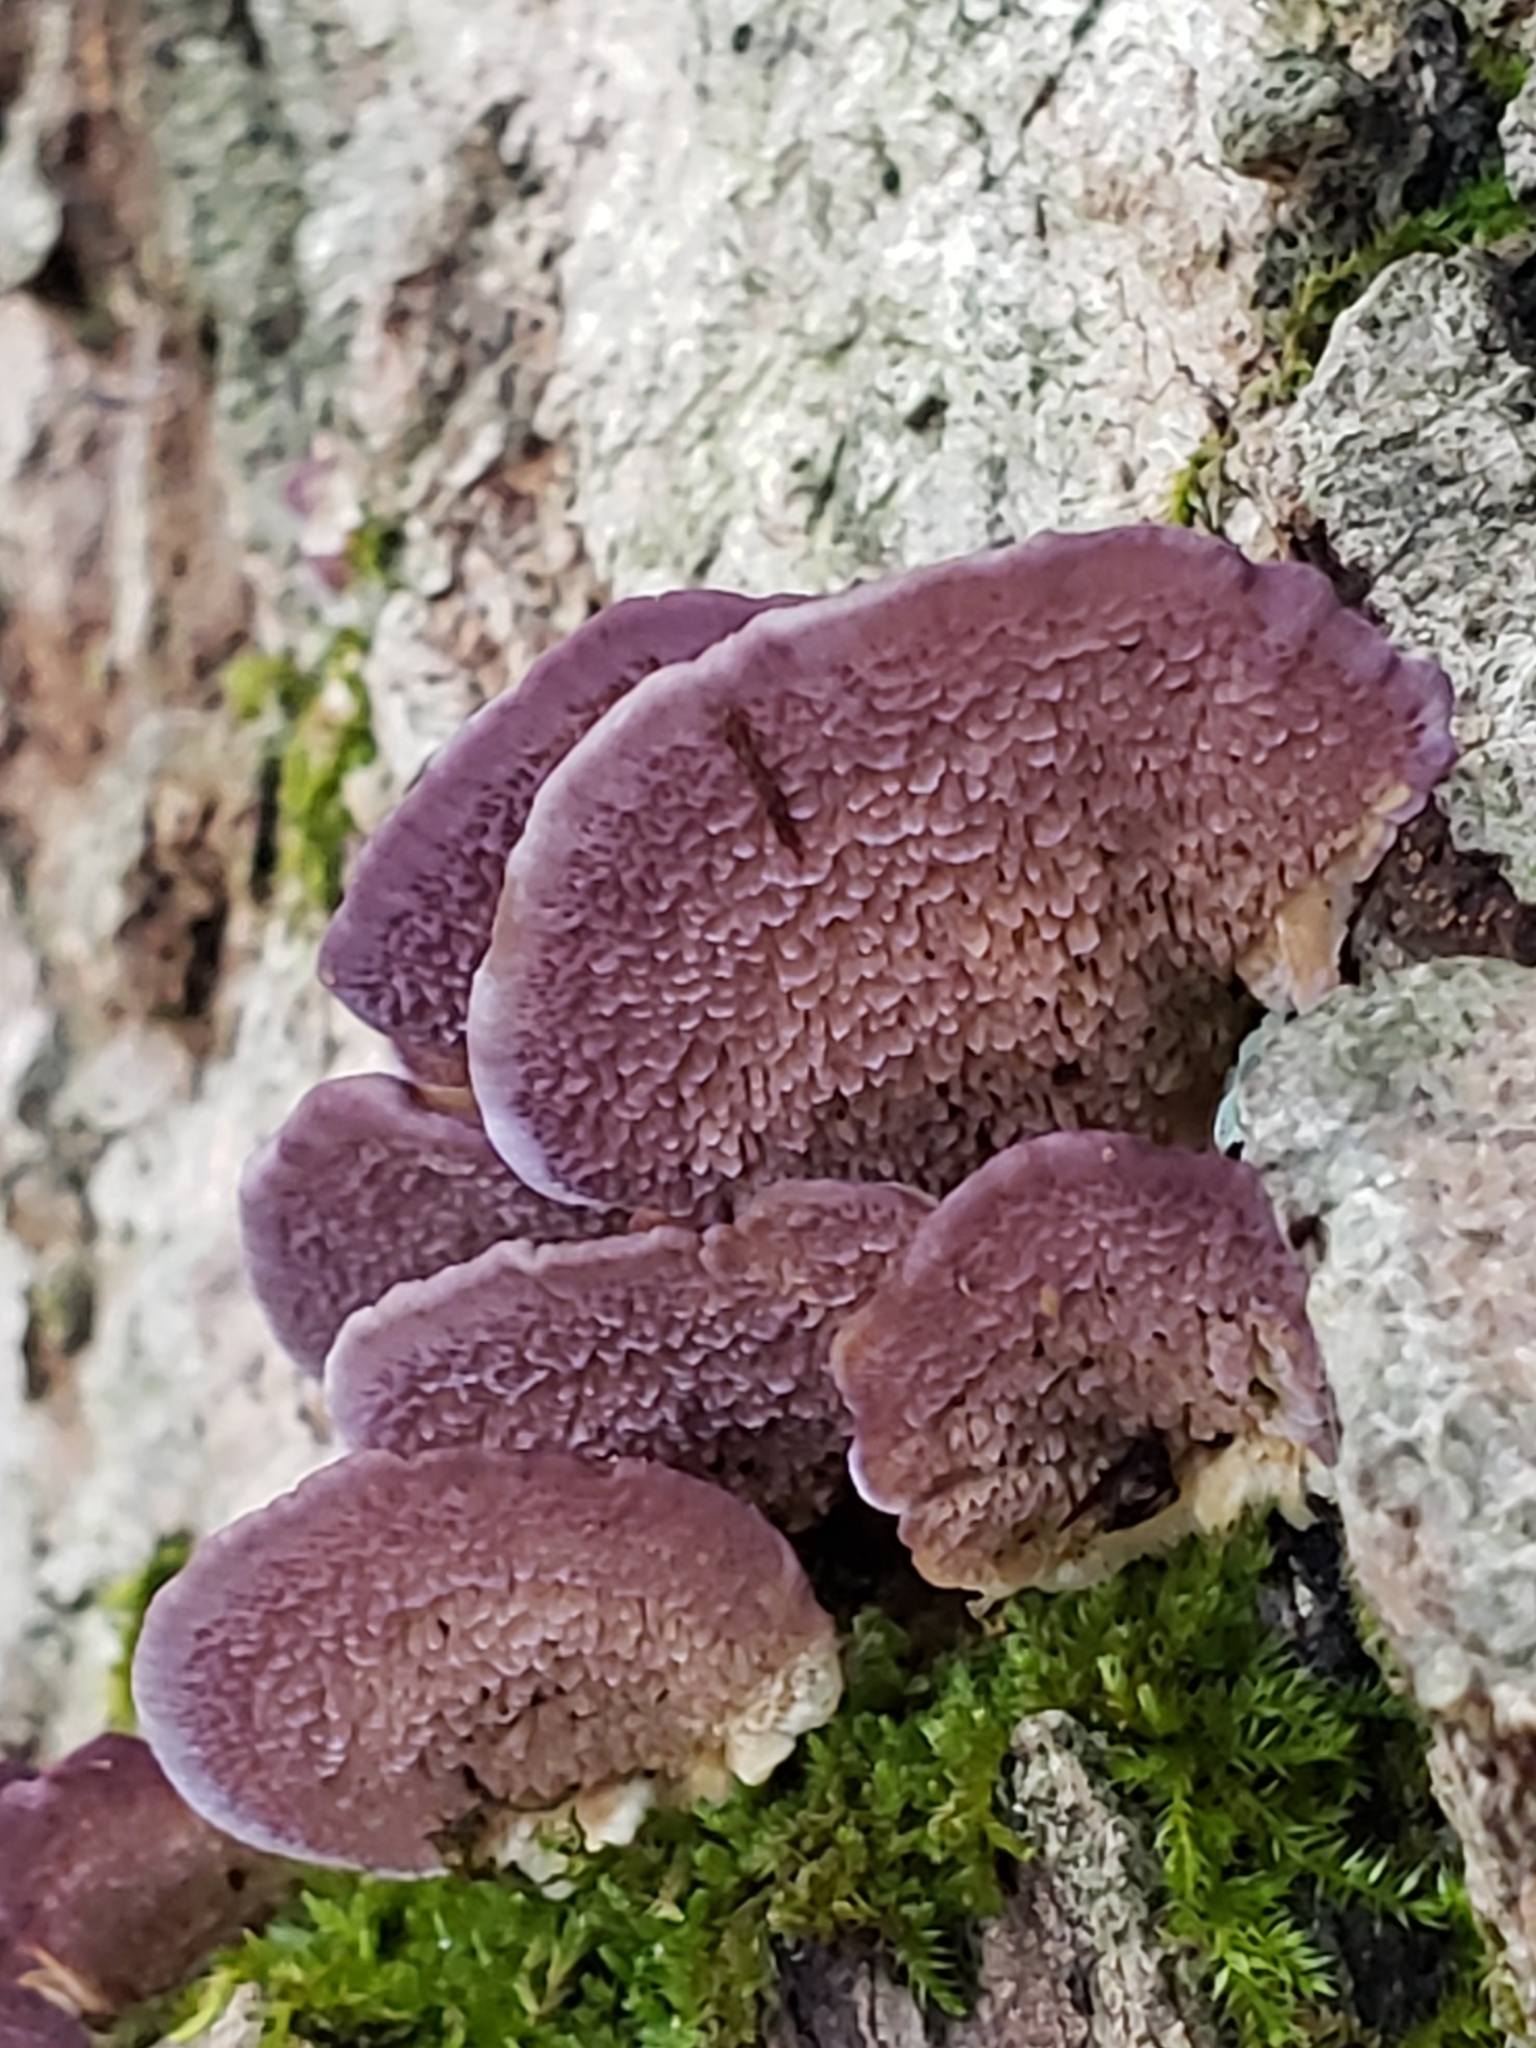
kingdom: Fungi
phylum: Basidiomycota
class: Agaricomycetes
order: Hymenochaetales
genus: Trichaptum
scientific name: Trichaptum biforme
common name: Violet-toothed polypore
